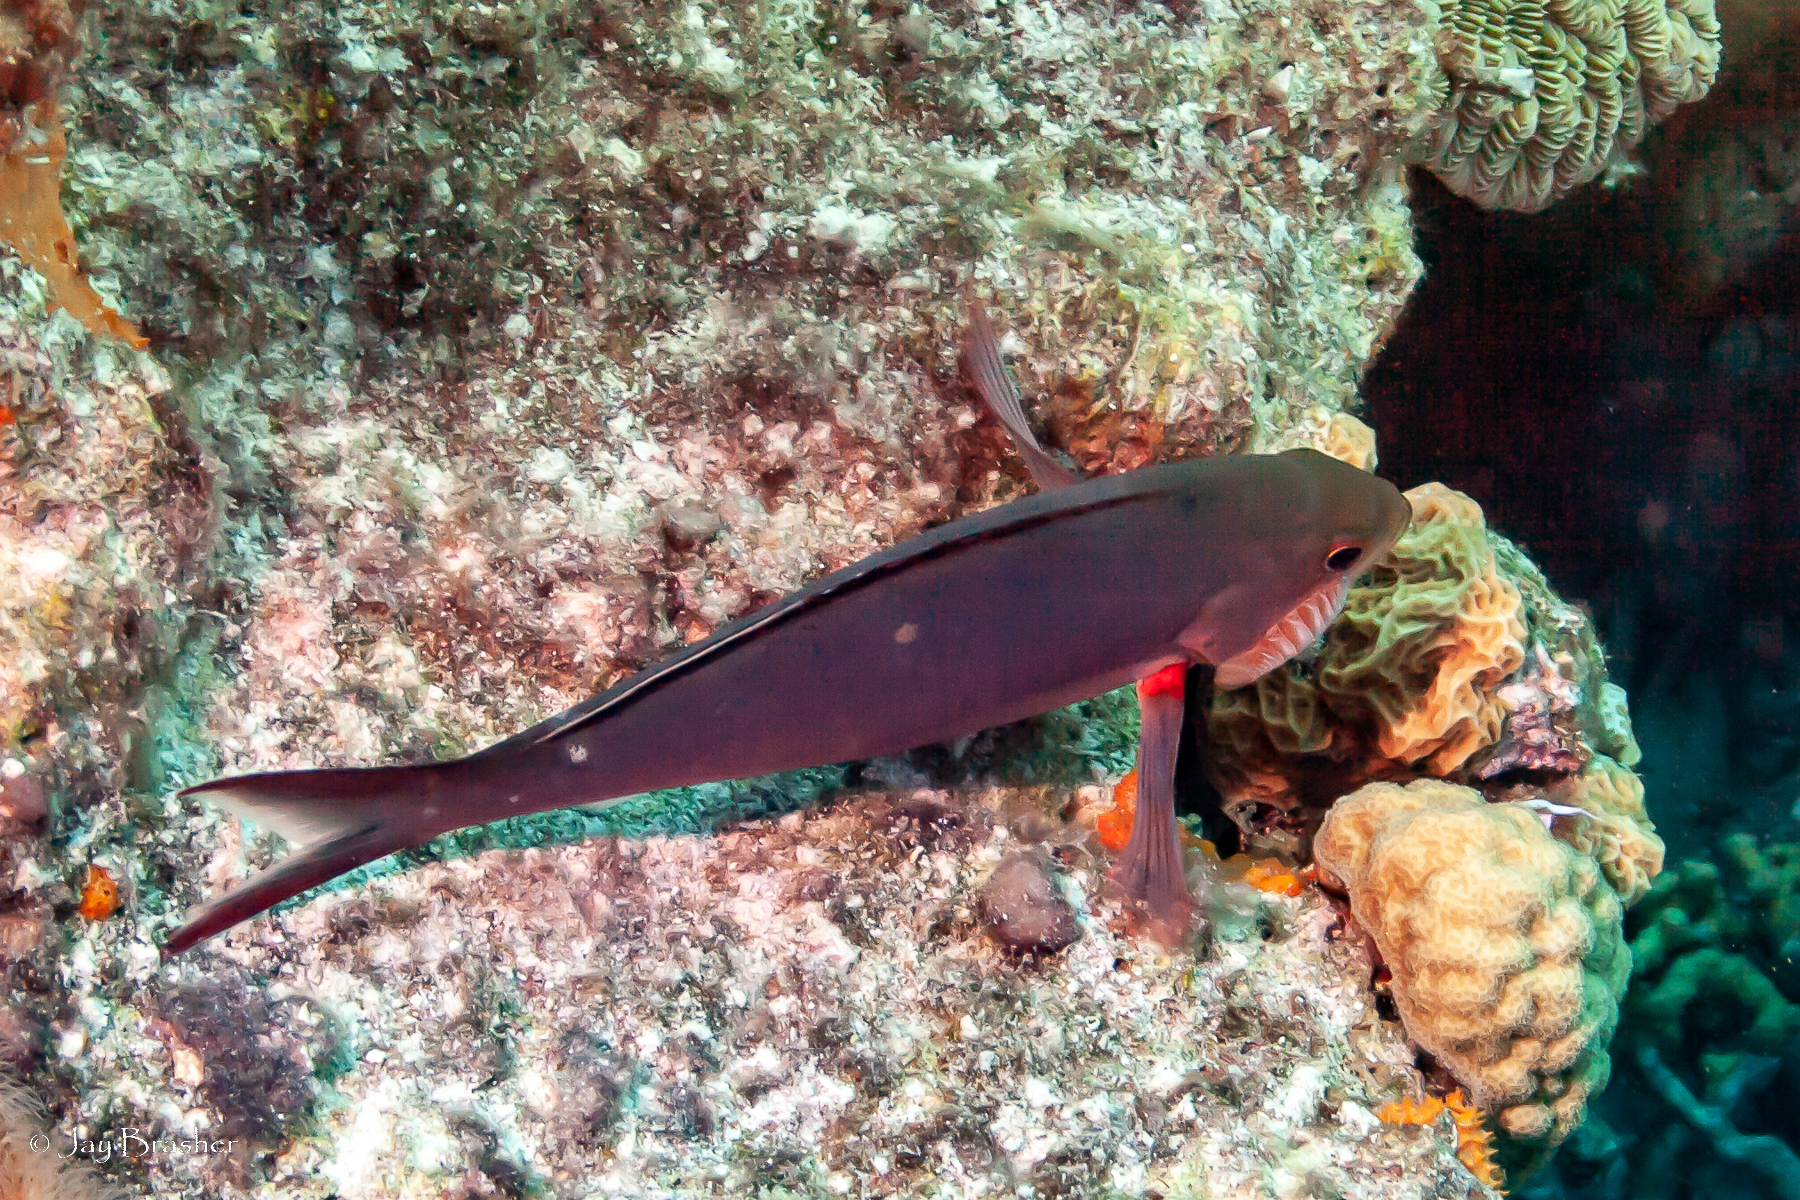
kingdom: Animalia
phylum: Chordata
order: Perciformes
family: Serranidae
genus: Paranthias
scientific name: Paranthias furcifer
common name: Creole-fish
